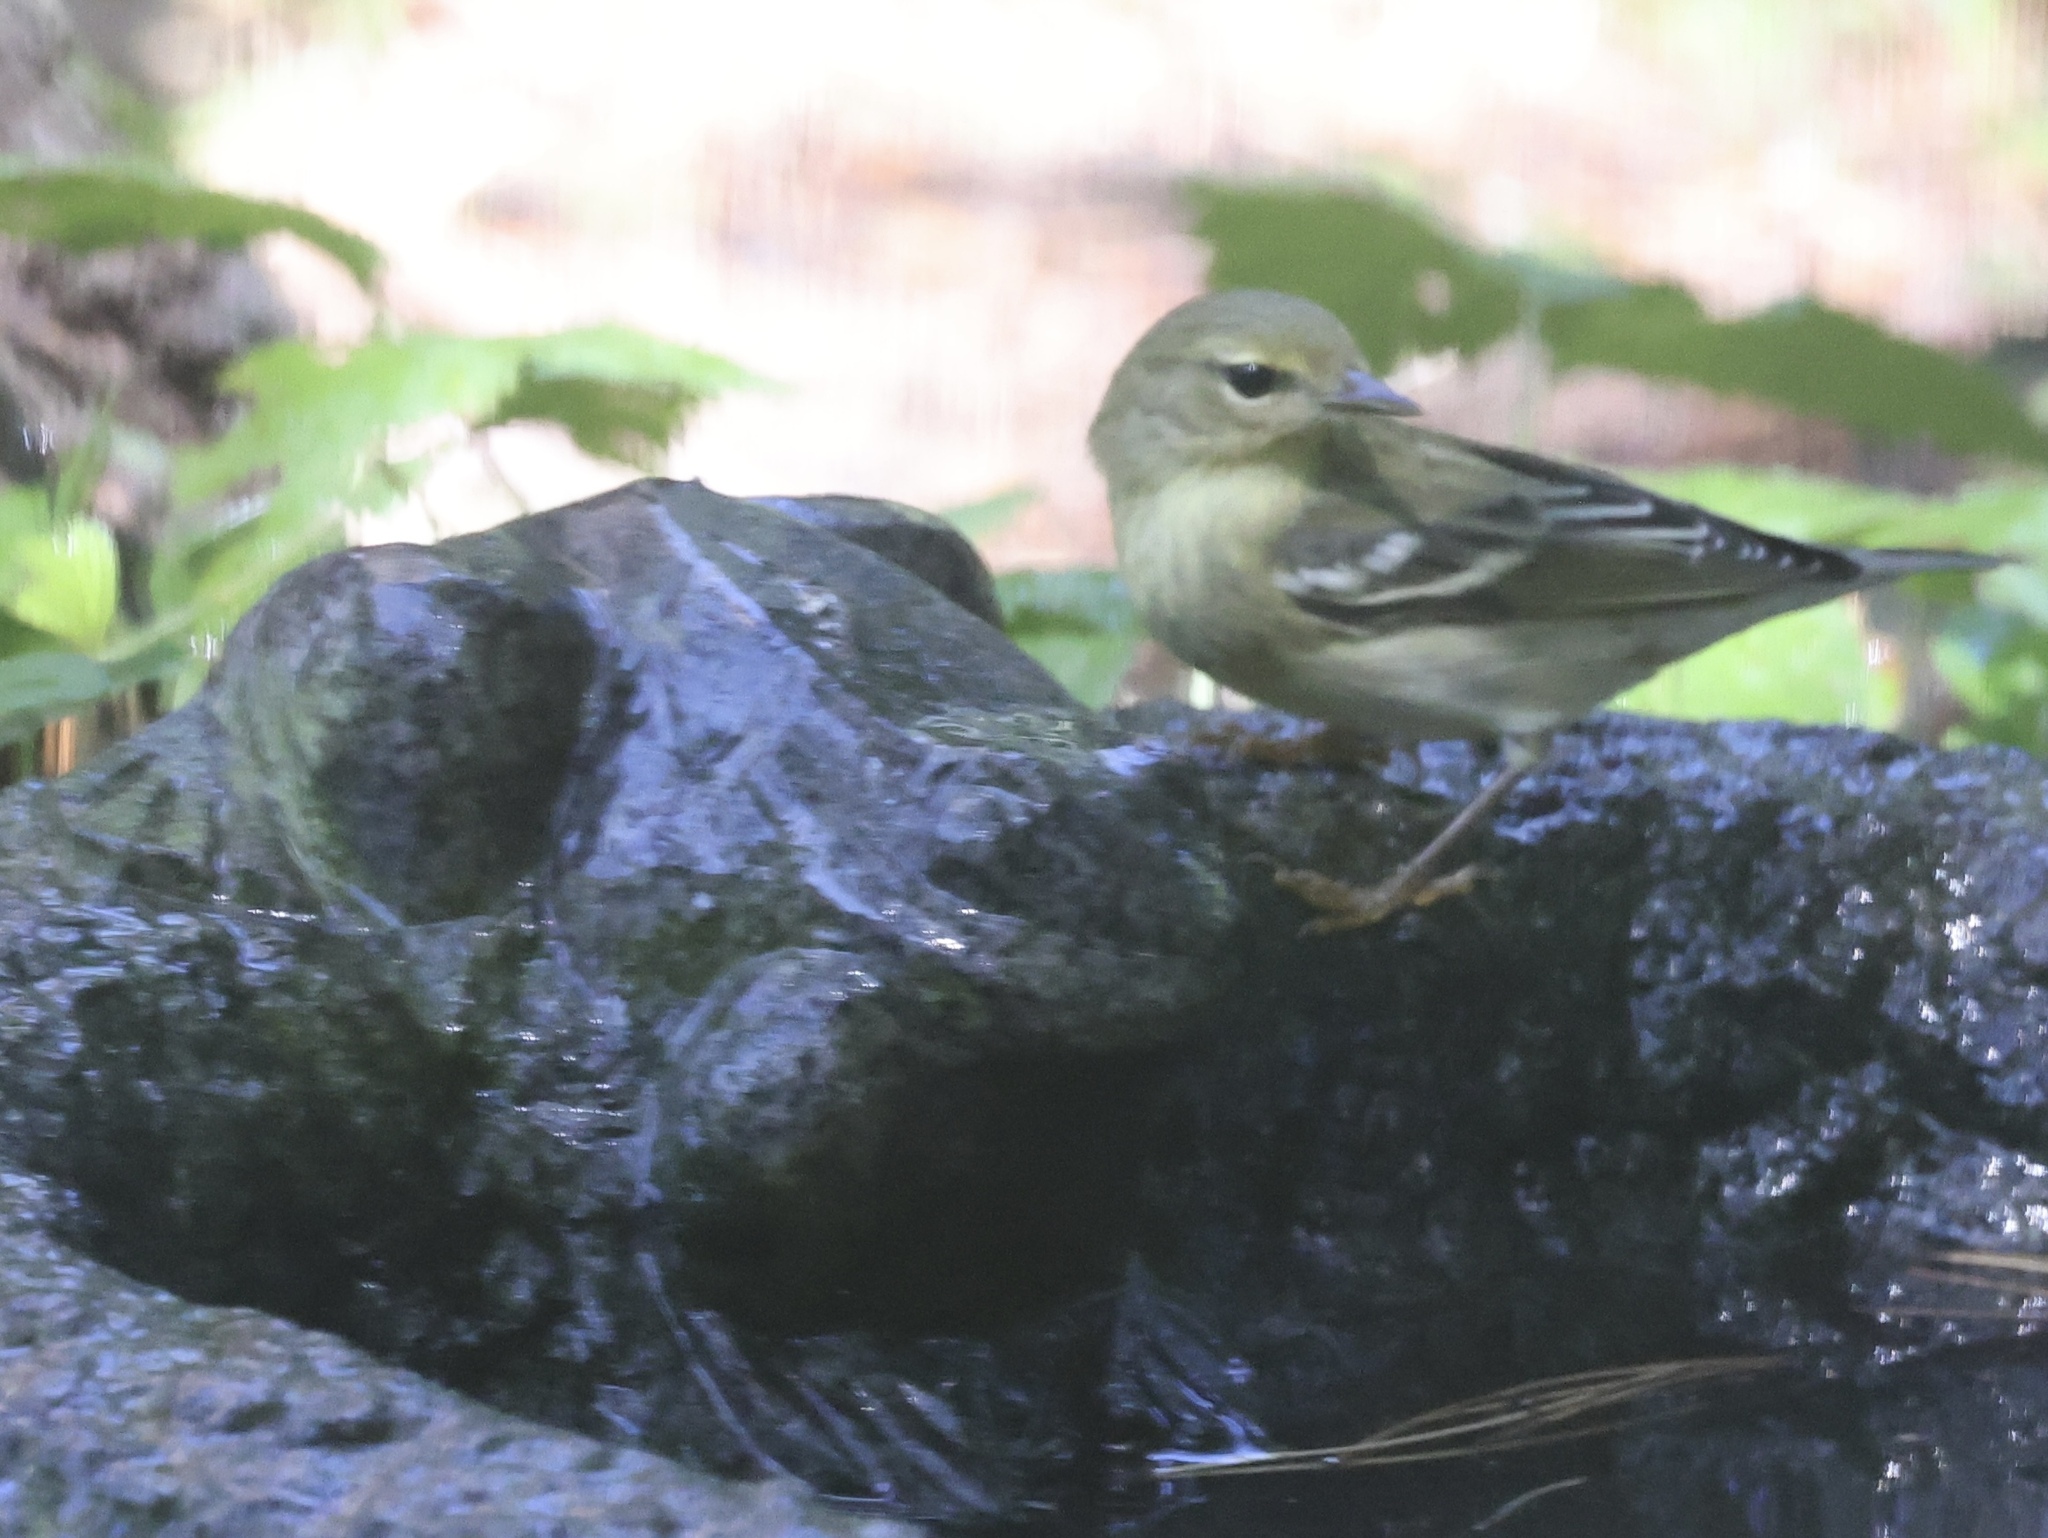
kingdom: Animalia
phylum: Chordata
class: Aves
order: Passeriformes
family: Parulidae
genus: Setophaga
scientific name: Setophaga striata
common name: Blackpoll warbler
